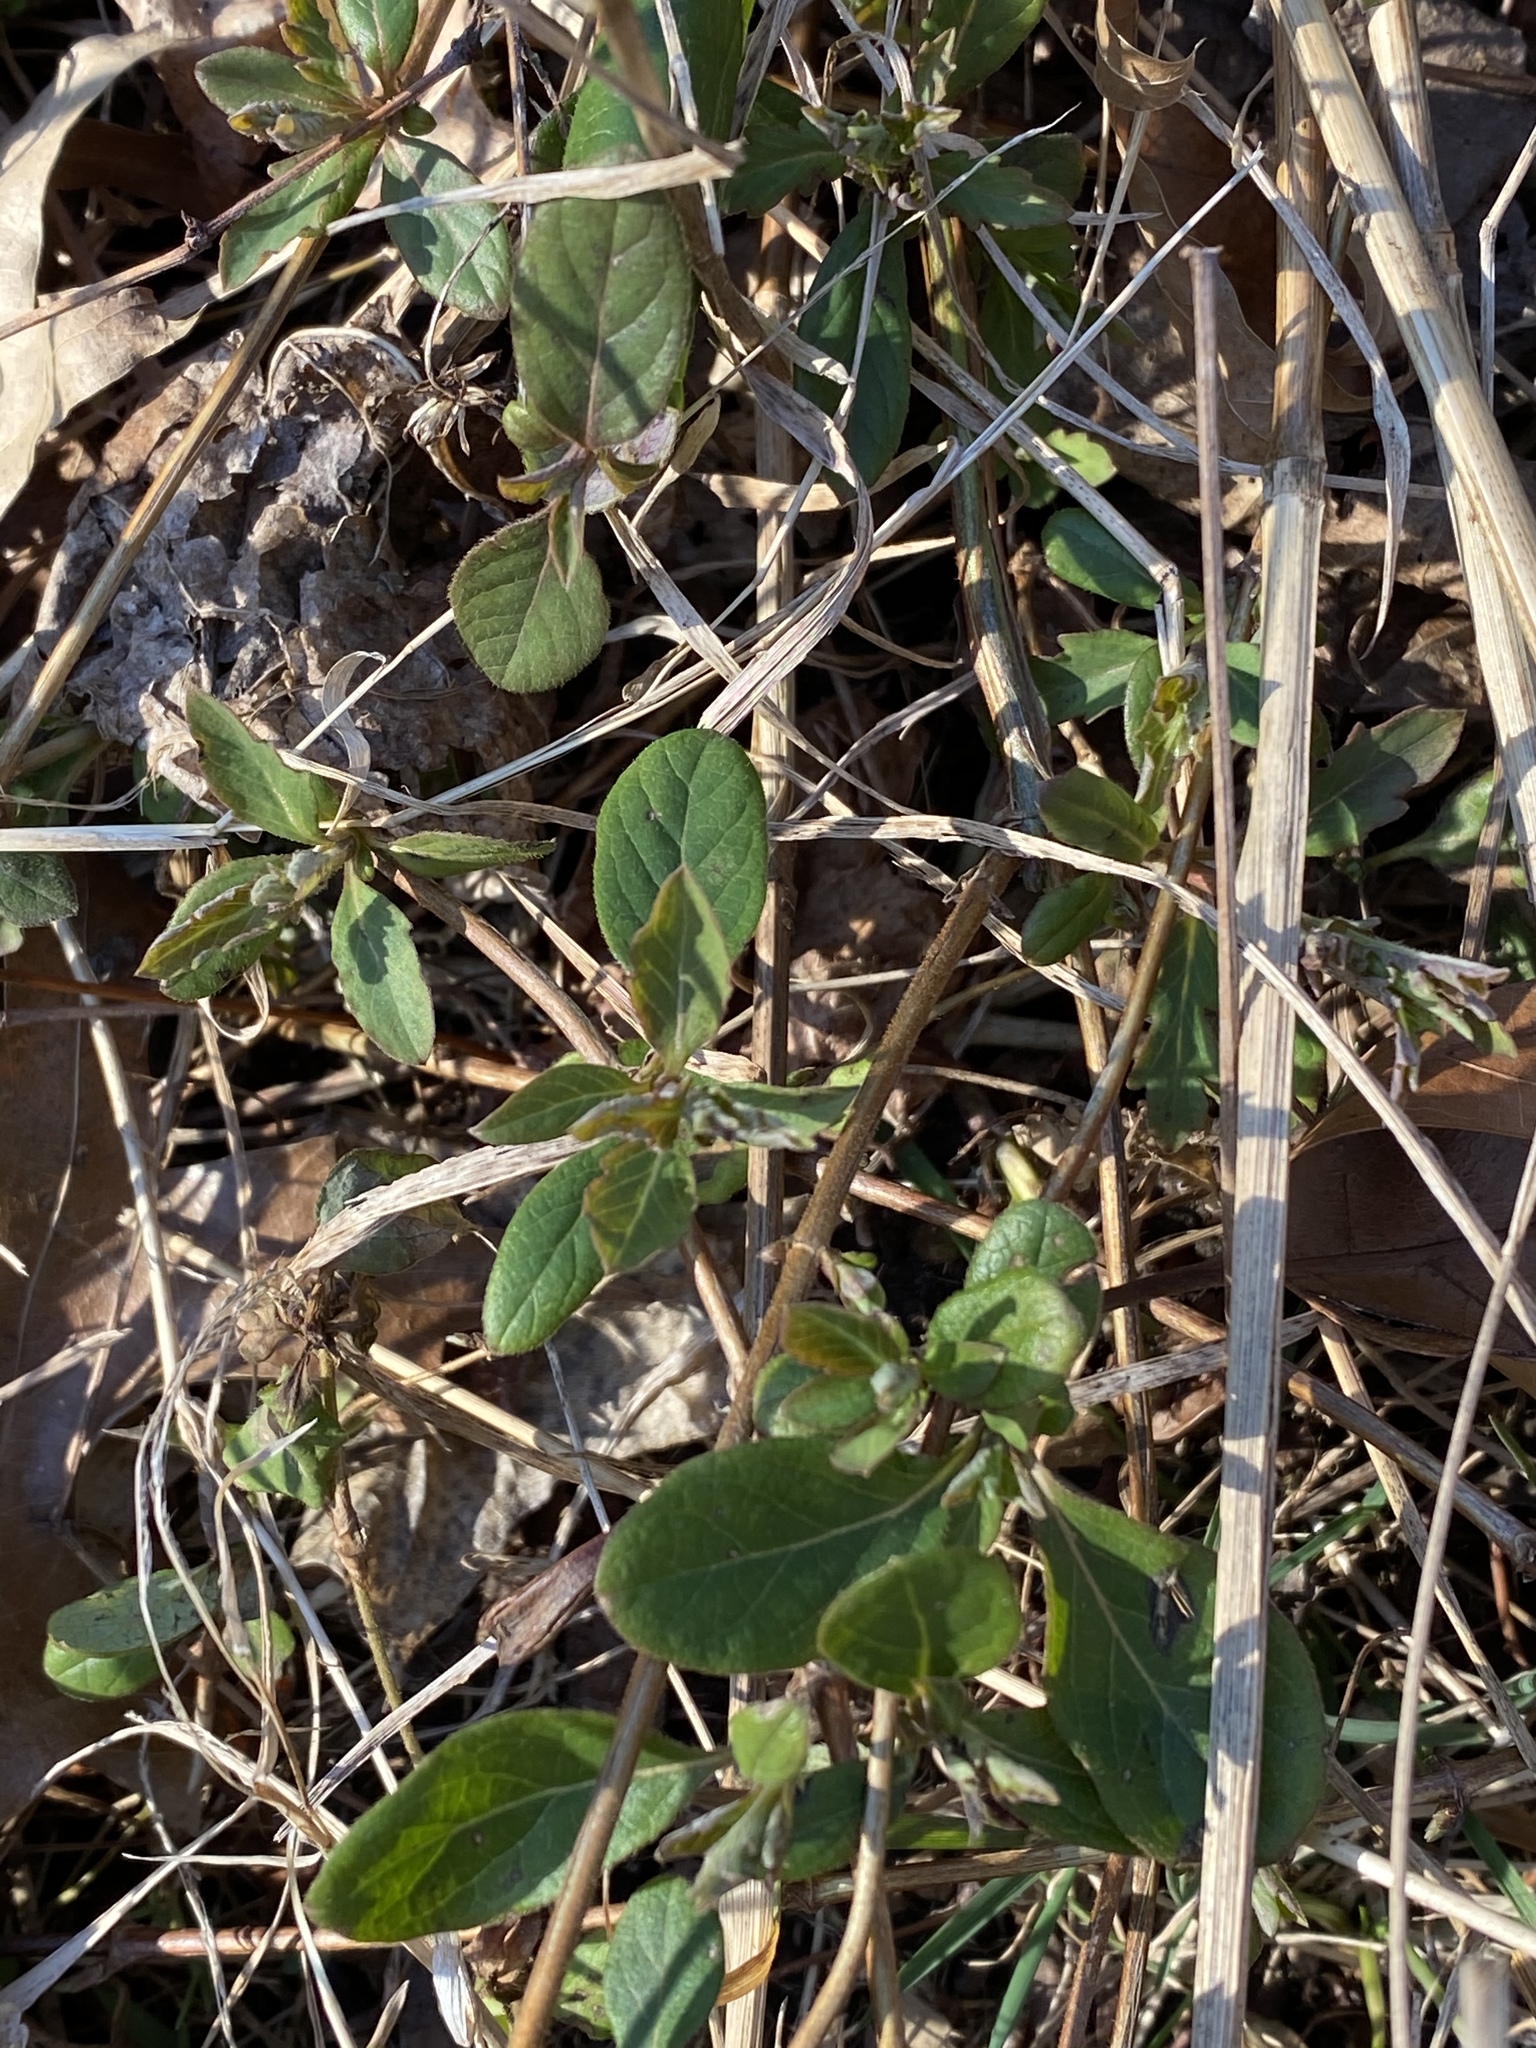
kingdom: Plantae
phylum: Tracheophyta
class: Magnoliopsida
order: Dipsacales
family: Caprifoliaceae
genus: Lonicera
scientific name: Lonicera japonica
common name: Japanese honeysuckle
